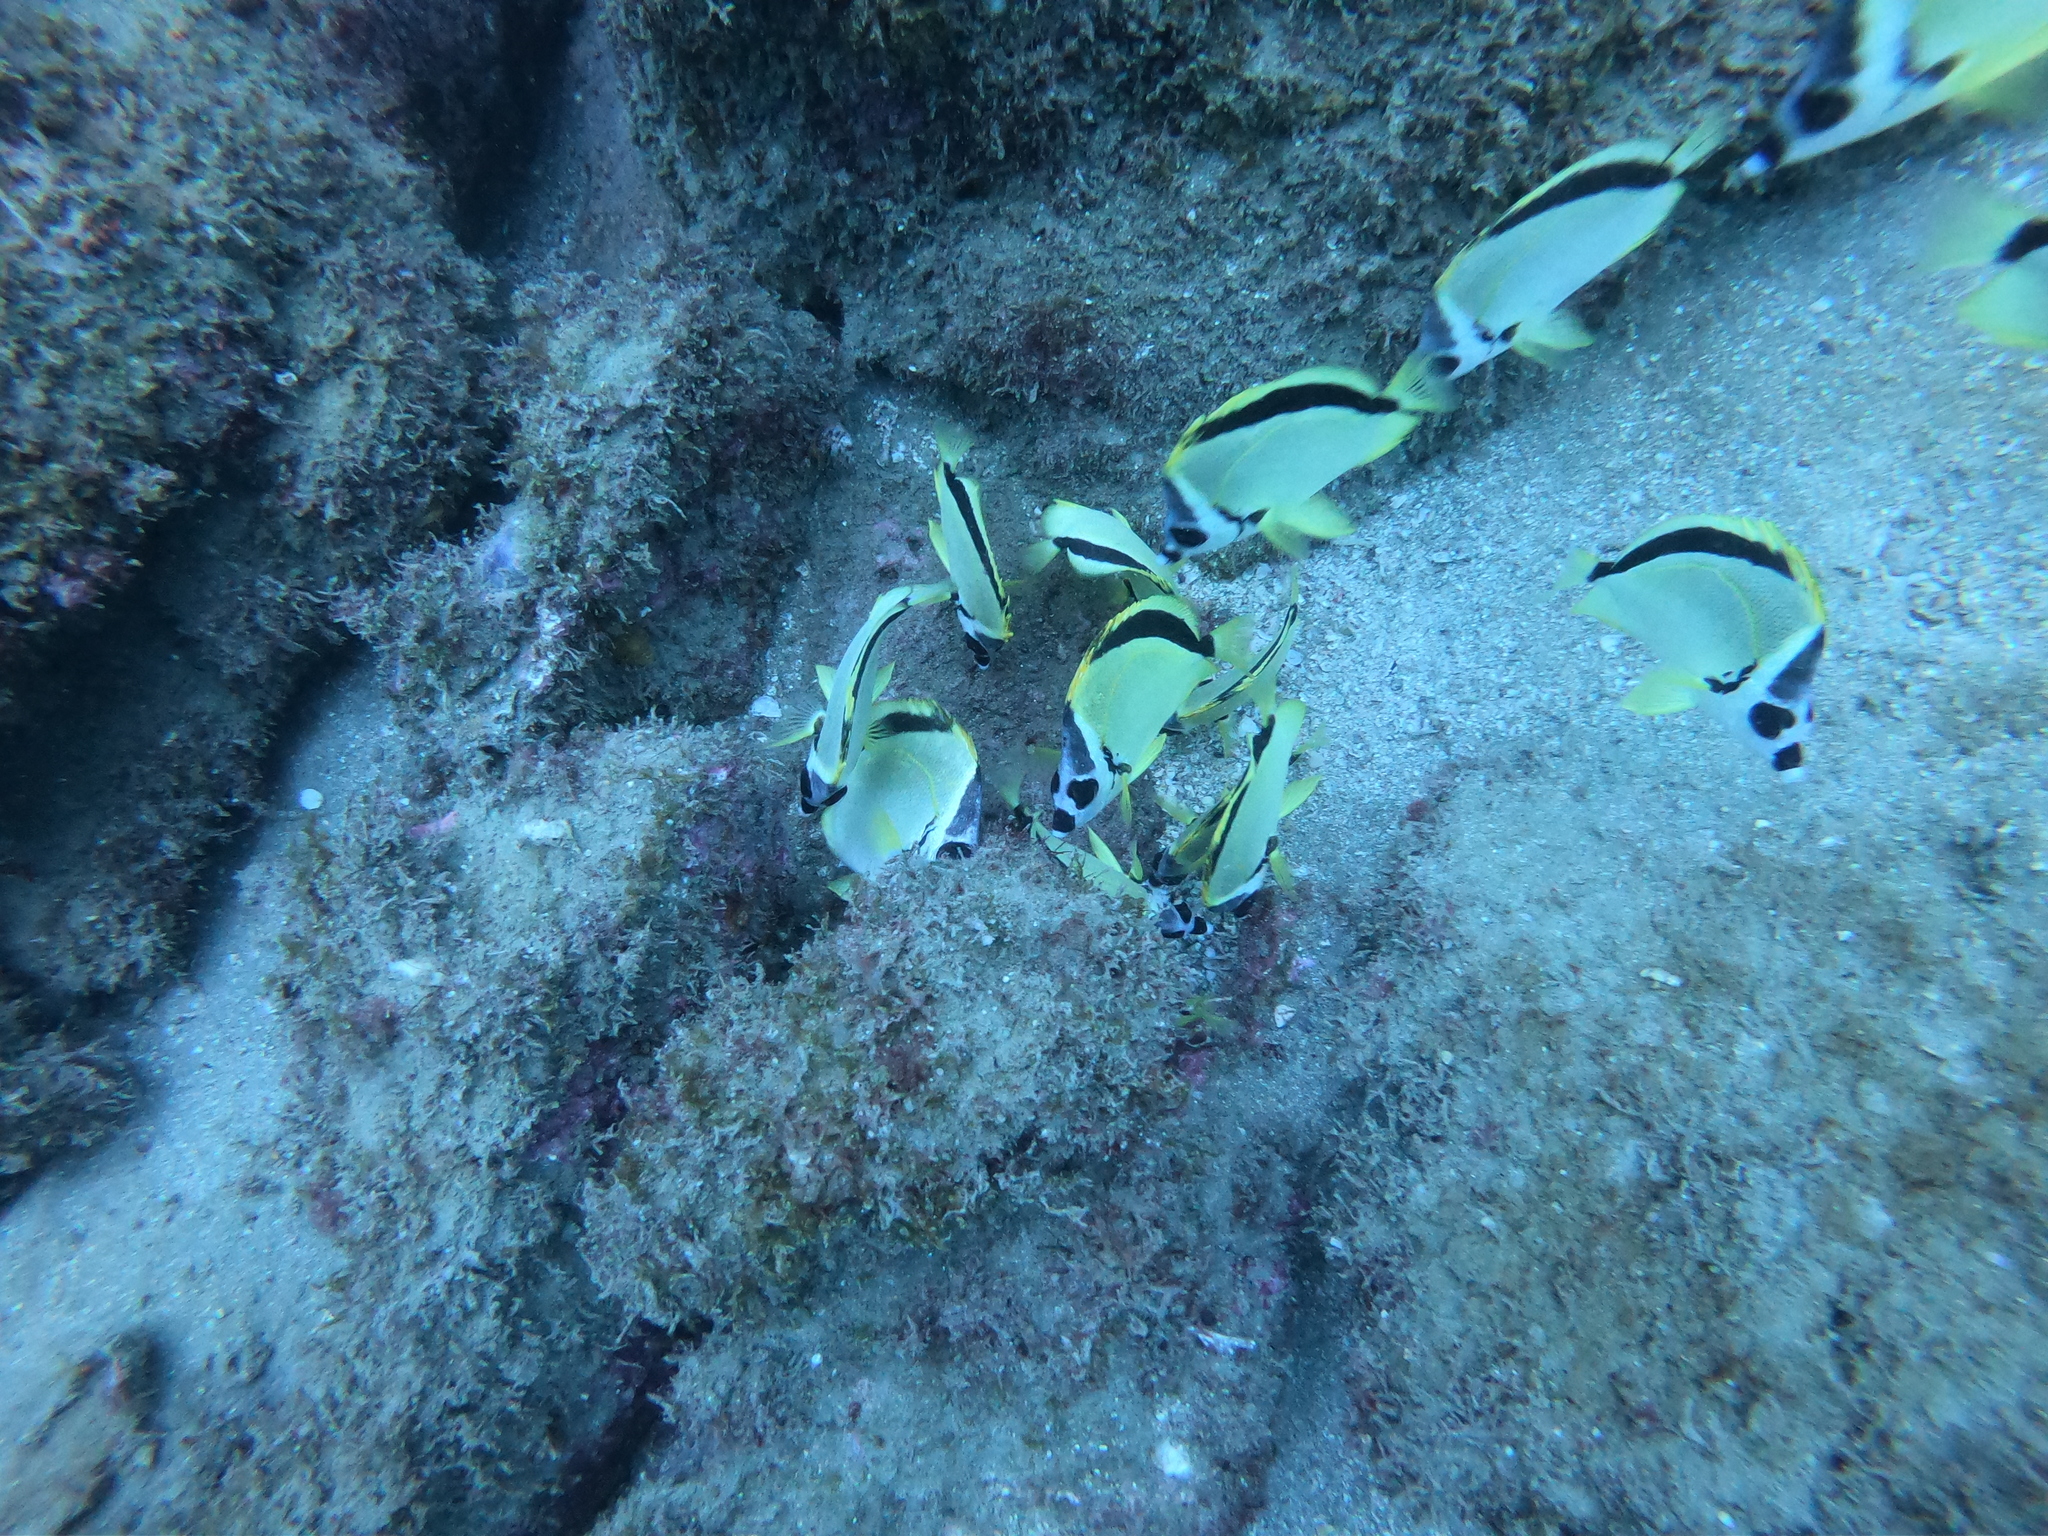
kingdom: Animalia
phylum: Chordata
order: Perciformes
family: Chaetodontidae
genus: Johnrandallia
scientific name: Johnrandallia nigrirostris
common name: Barberfish
